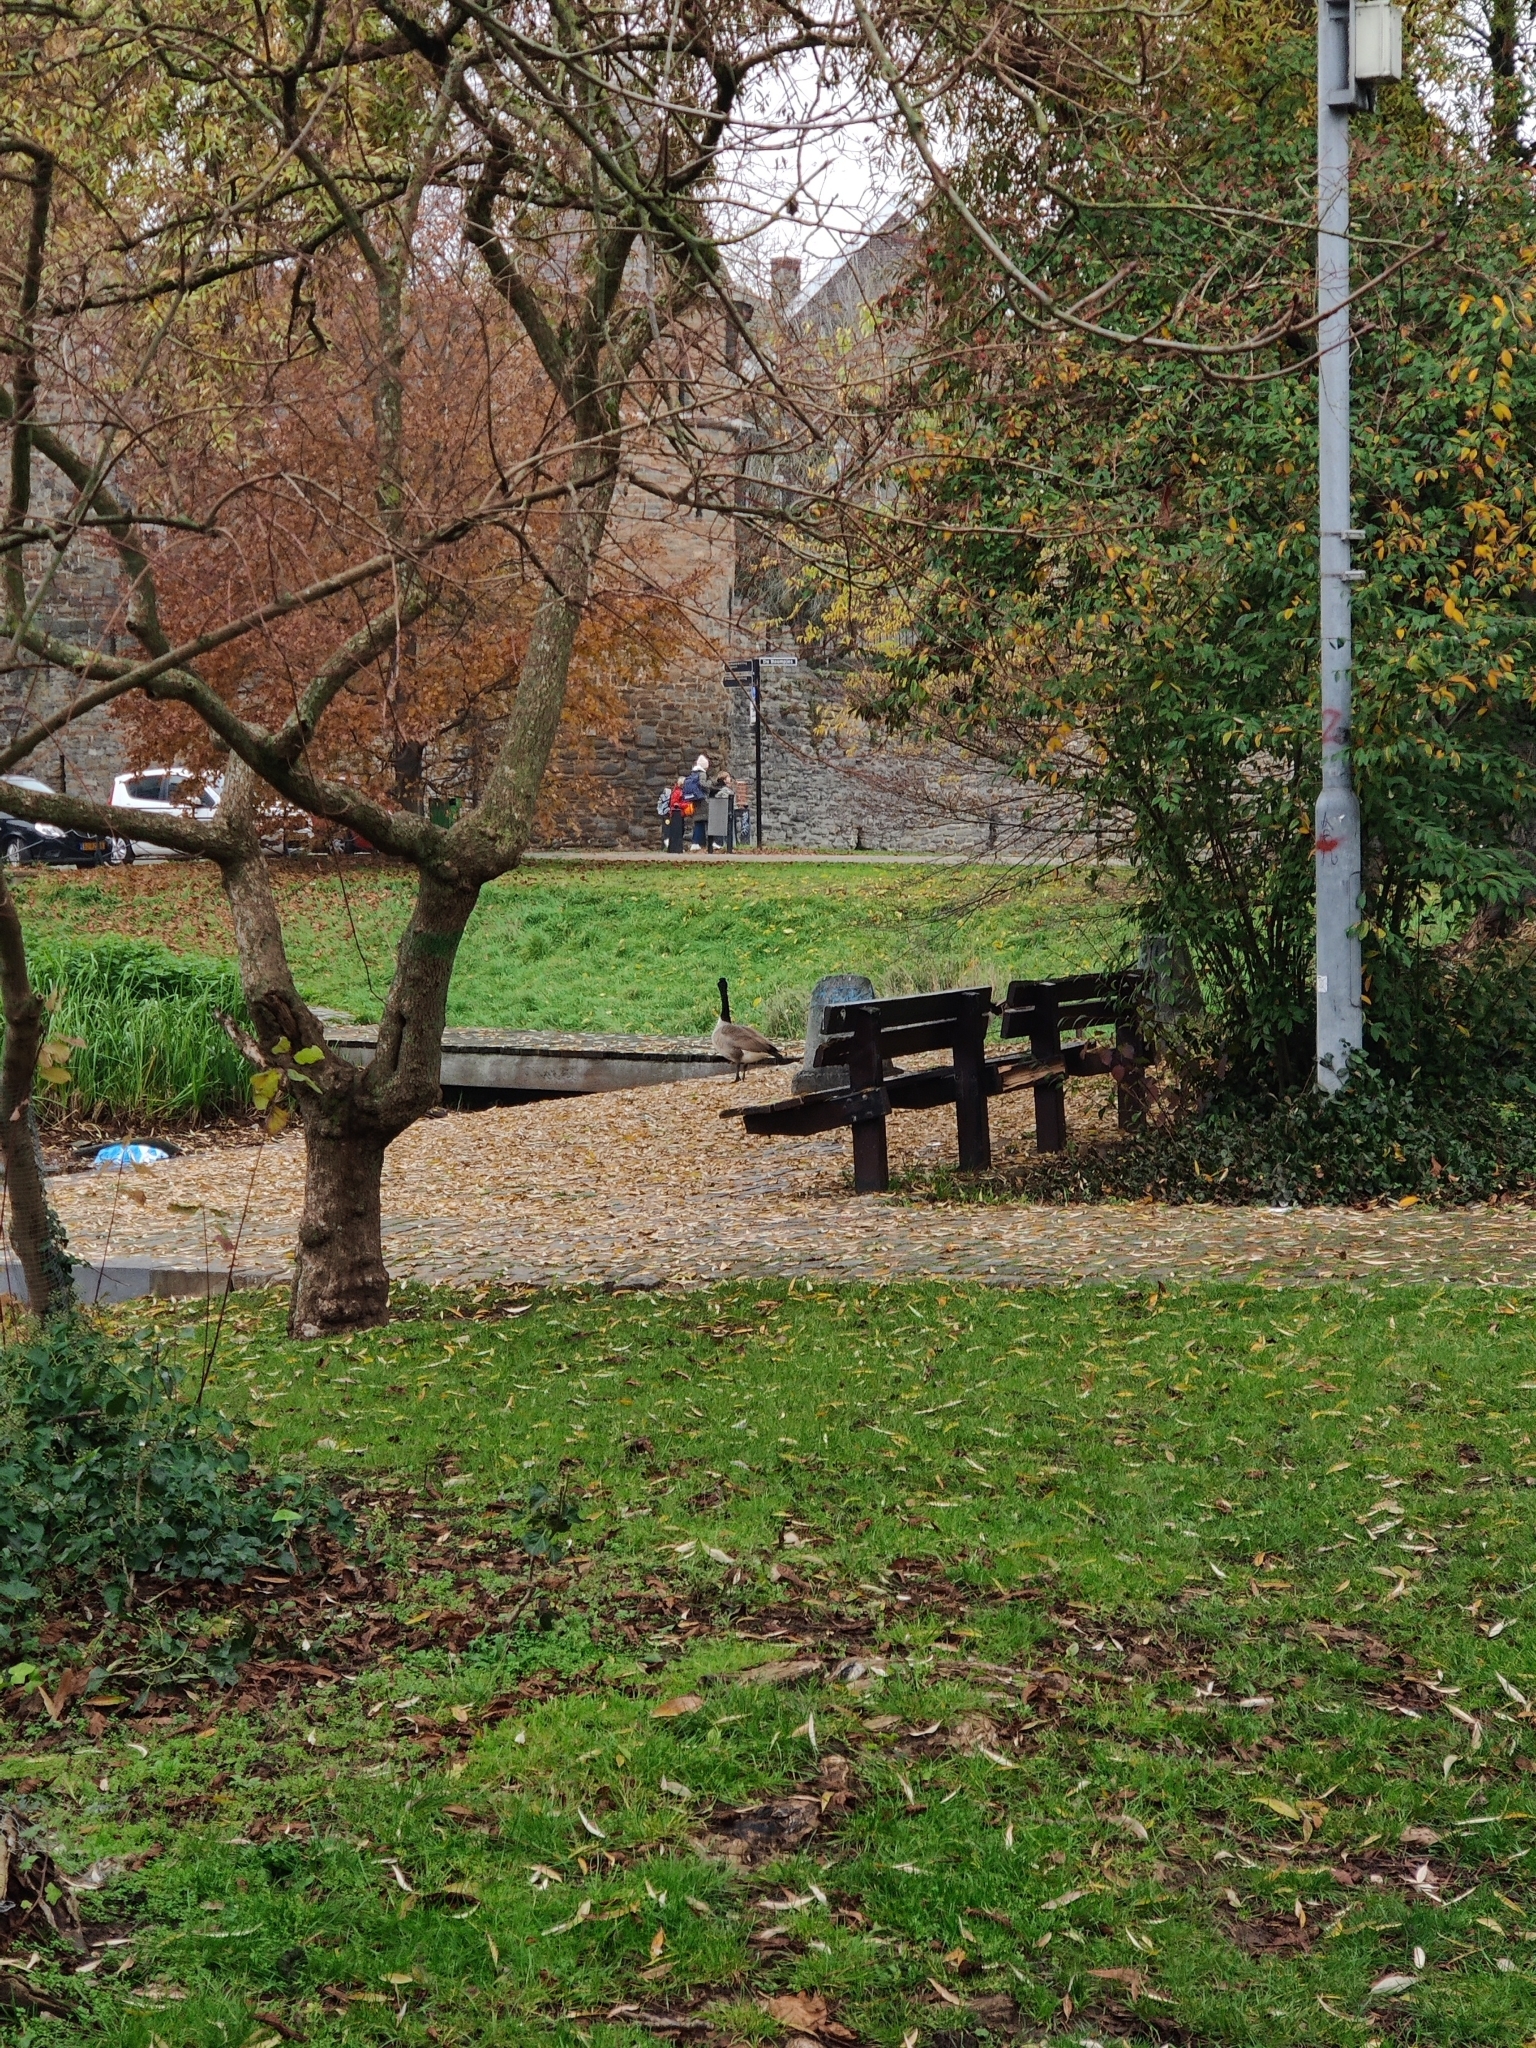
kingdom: Animalia
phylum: Chordata
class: Aves
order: Anseriformes
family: Anatidae
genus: Branta
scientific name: Branta canadensis
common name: Canada goose
